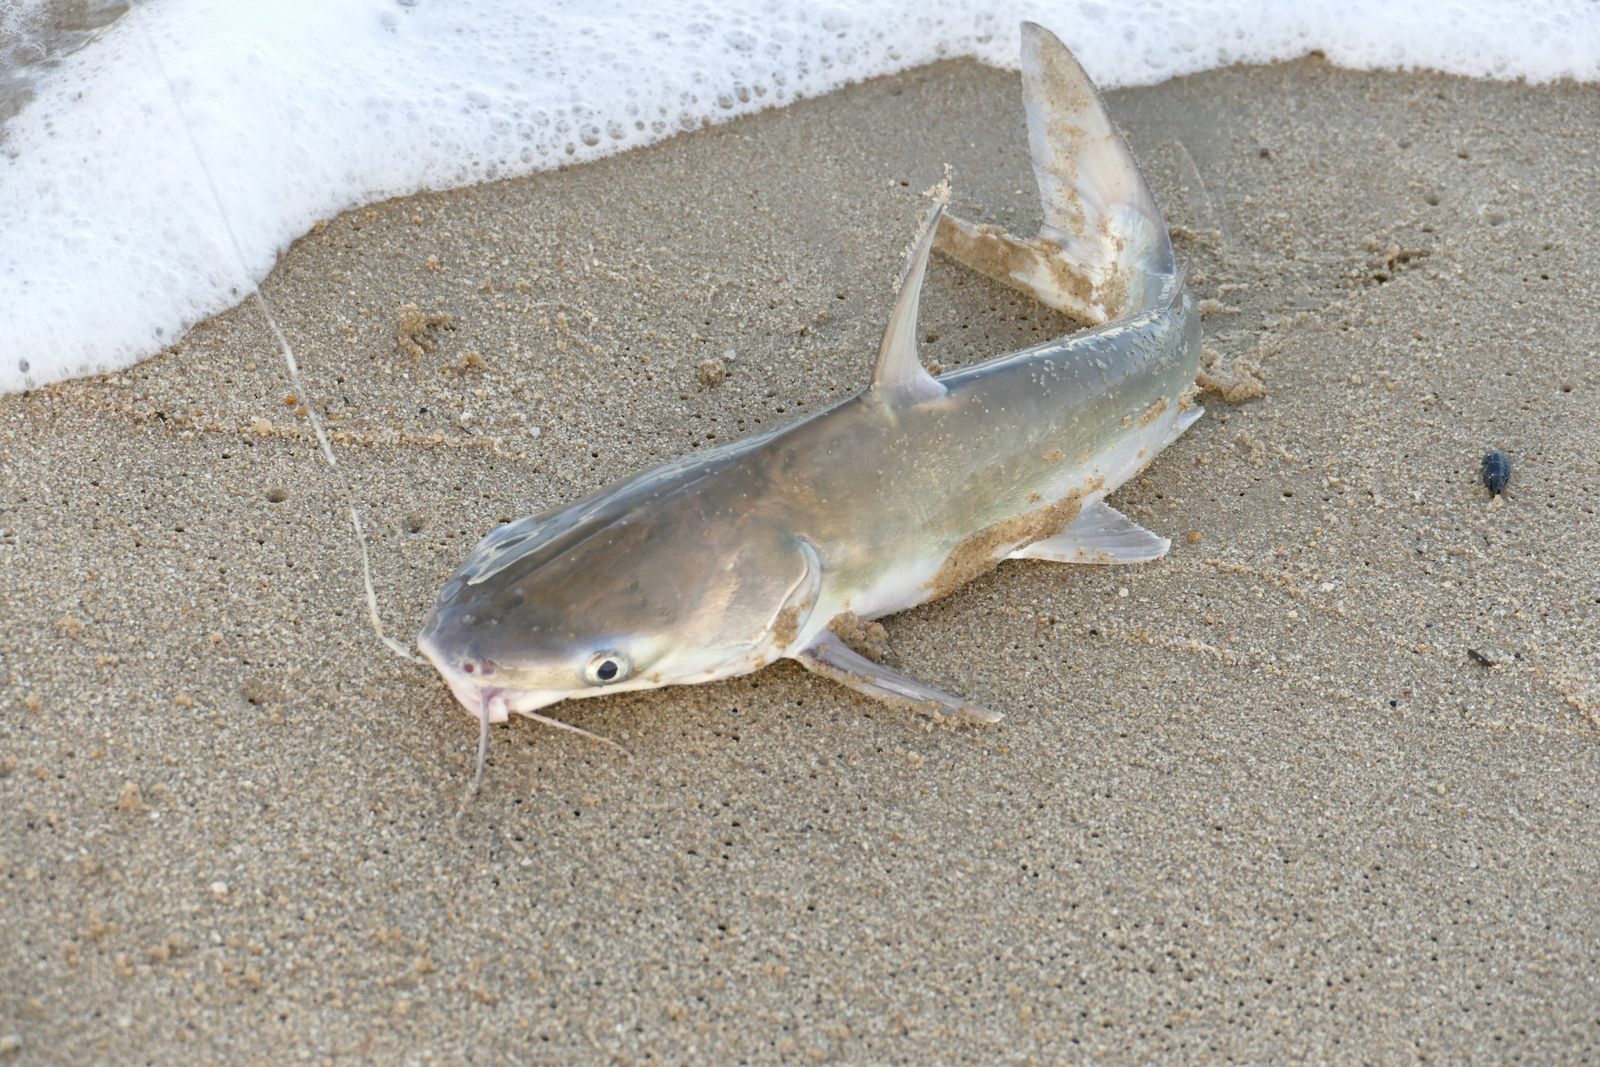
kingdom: Animalia
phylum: Chordata
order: Siluriformes
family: Ariidae
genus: Plicofollis
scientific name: Plicofollis argyropleuron
